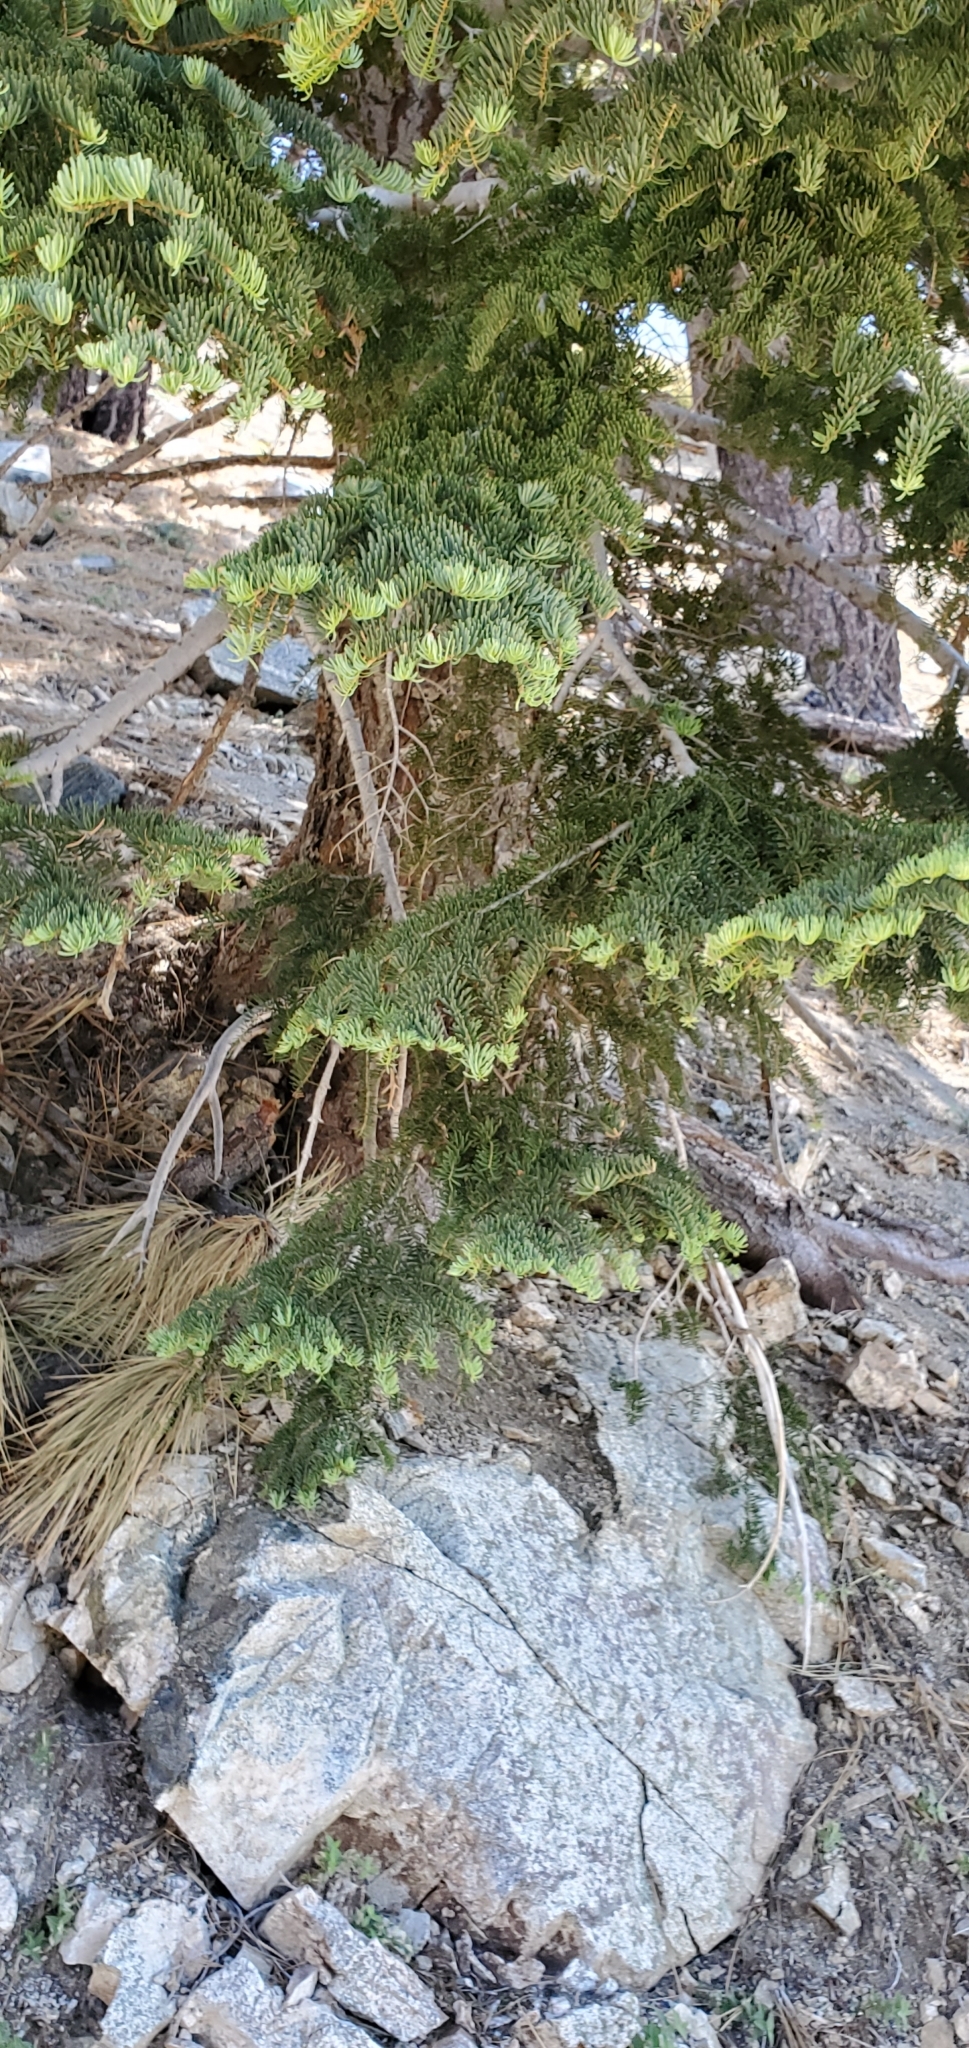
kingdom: Plantae
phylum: Tracheophyta
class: Pinopsida
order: Pinales
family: Pinaceae
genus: Abies
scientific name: Abies concolor
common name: Colorado fir
